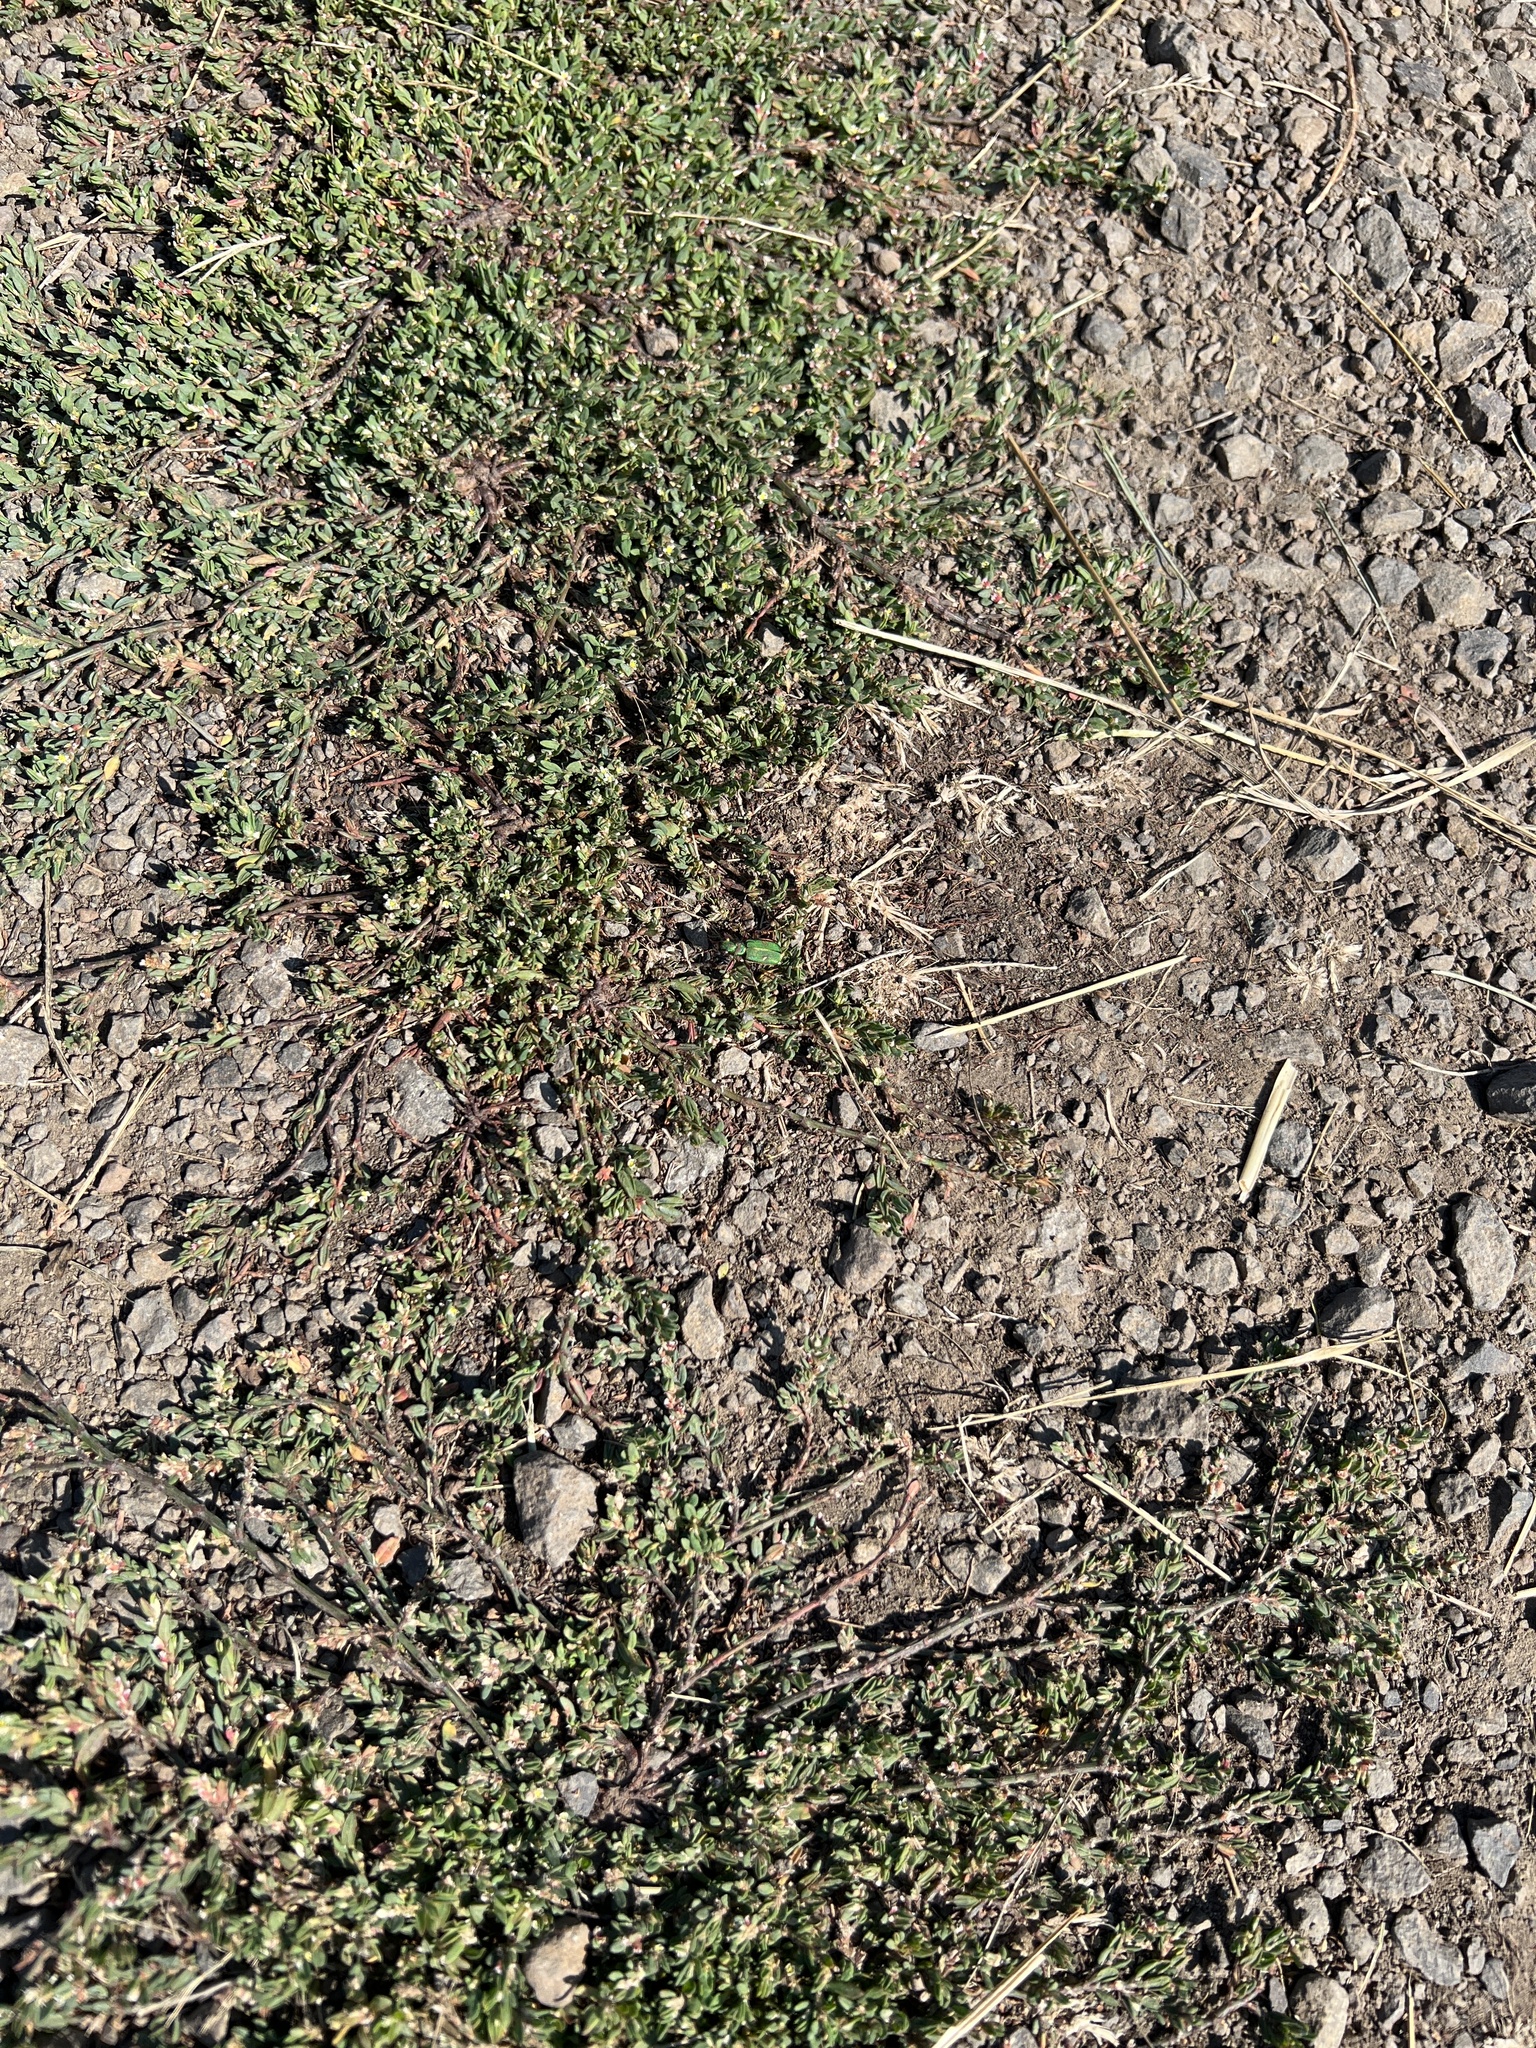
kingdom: Animalia
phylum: Arthropoda
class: Insecta
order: Coleoptera
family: Carabidae
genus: Cicindela
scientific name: Cicindela purpurea
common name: Cow path tiger beetle
